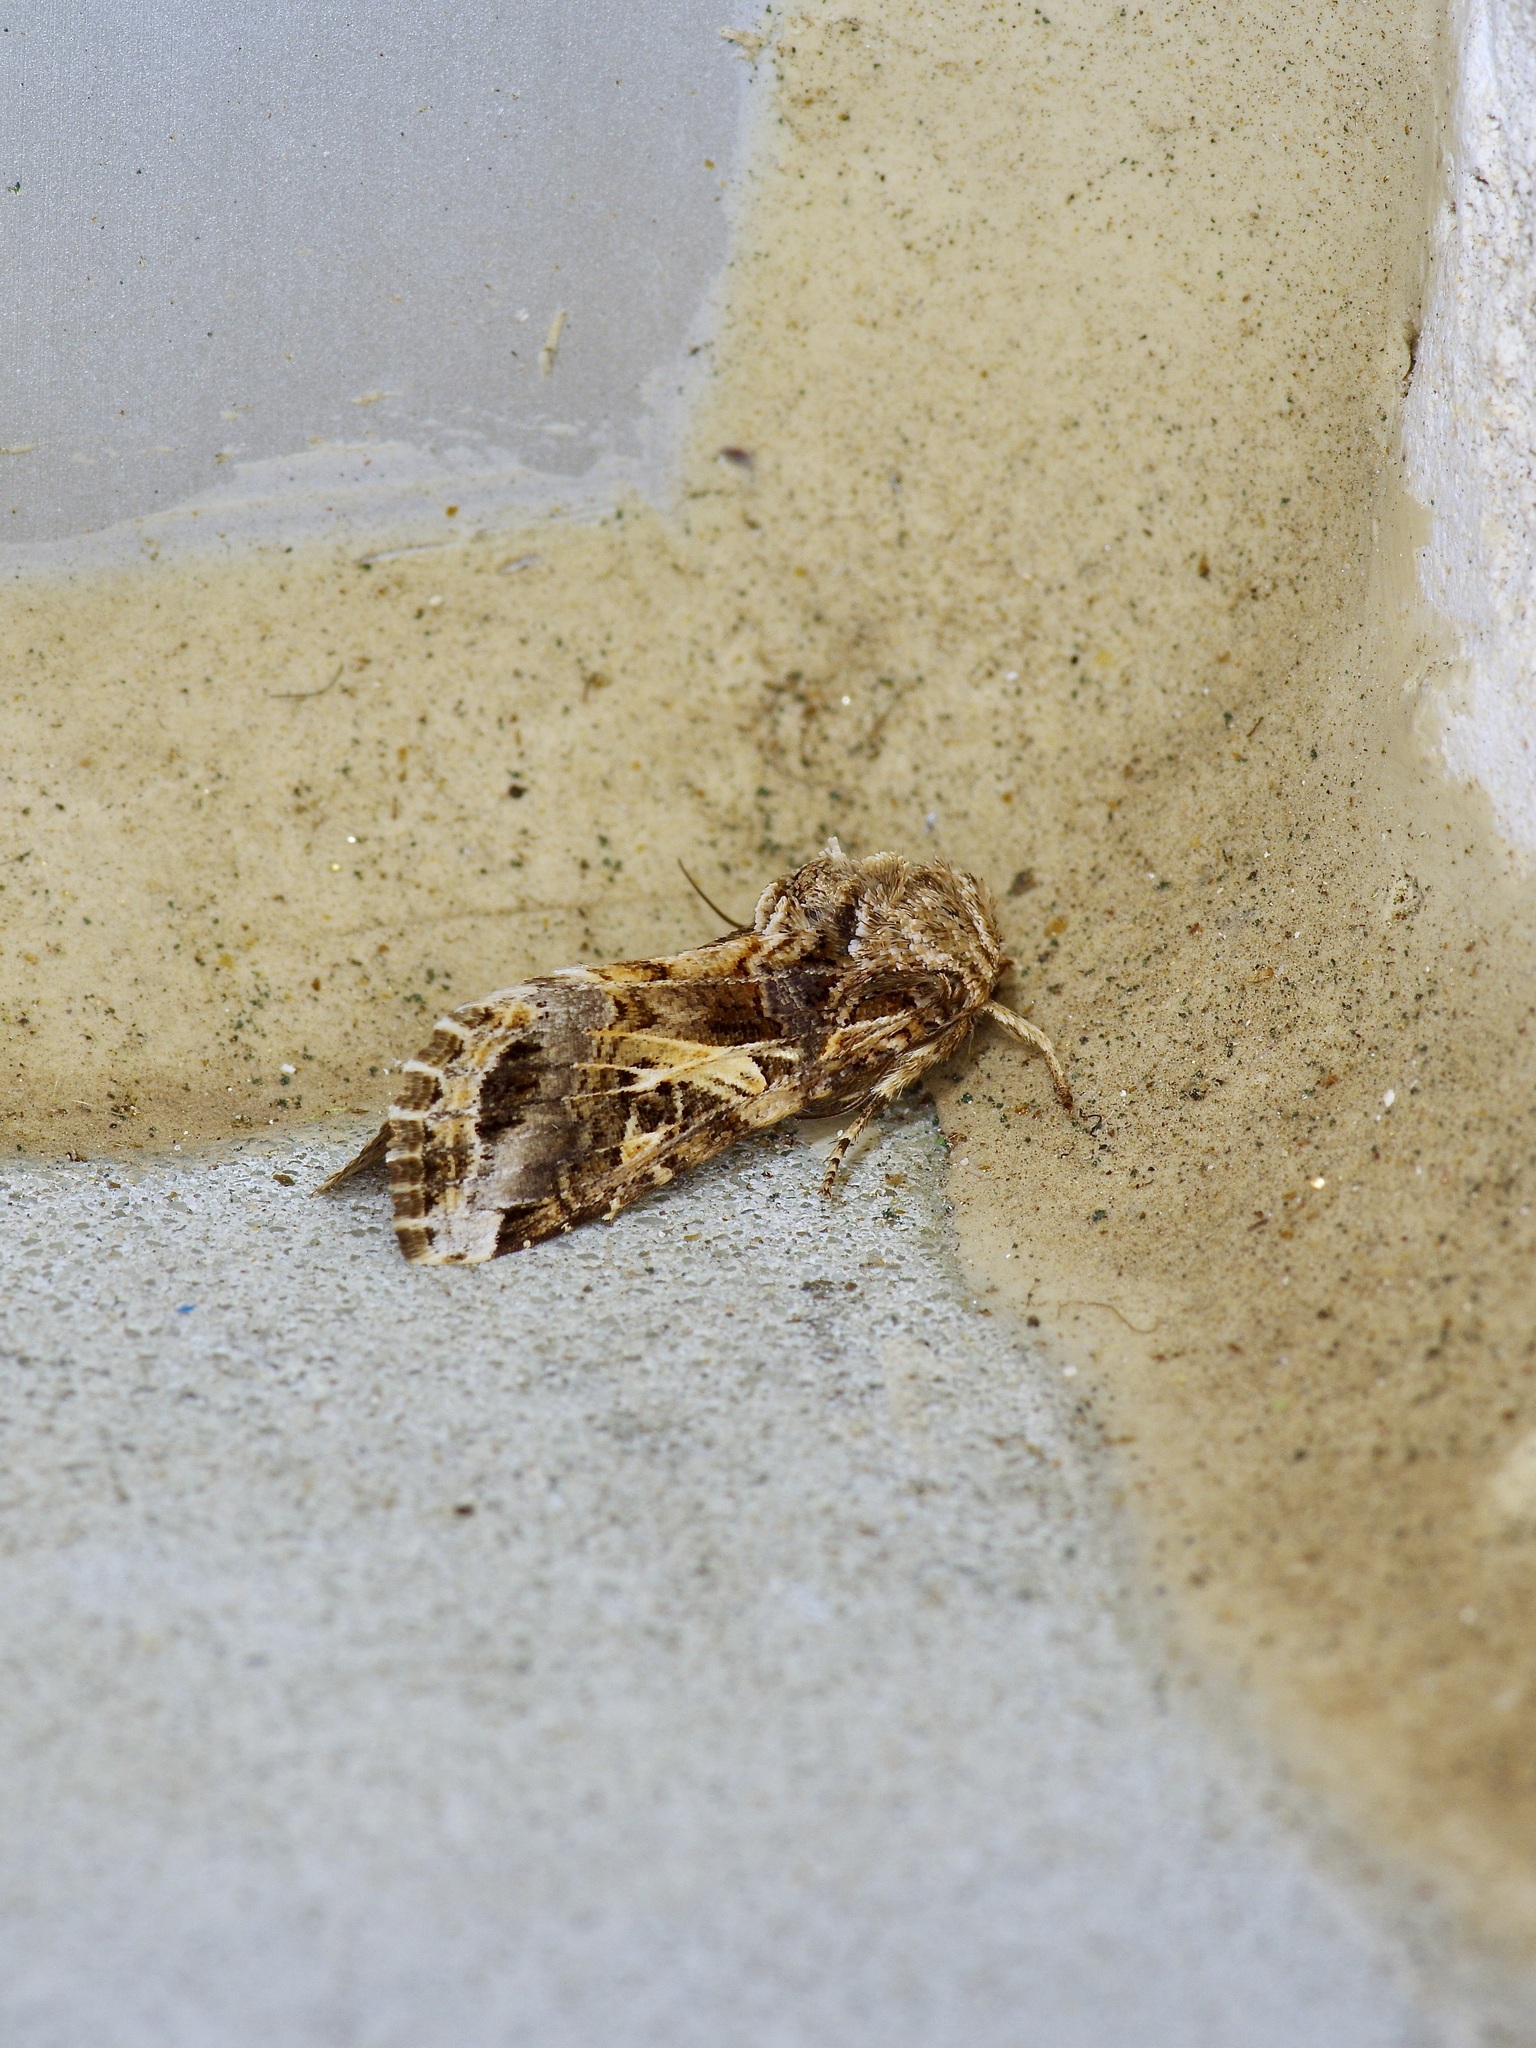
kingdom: Animalia
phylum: Arthropoda
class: Insecta
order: Lepidoptera
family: Noctuidae
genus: Spodoptera
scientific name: Spodoptera ornithogalli
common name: Yellow-striped armyworm
